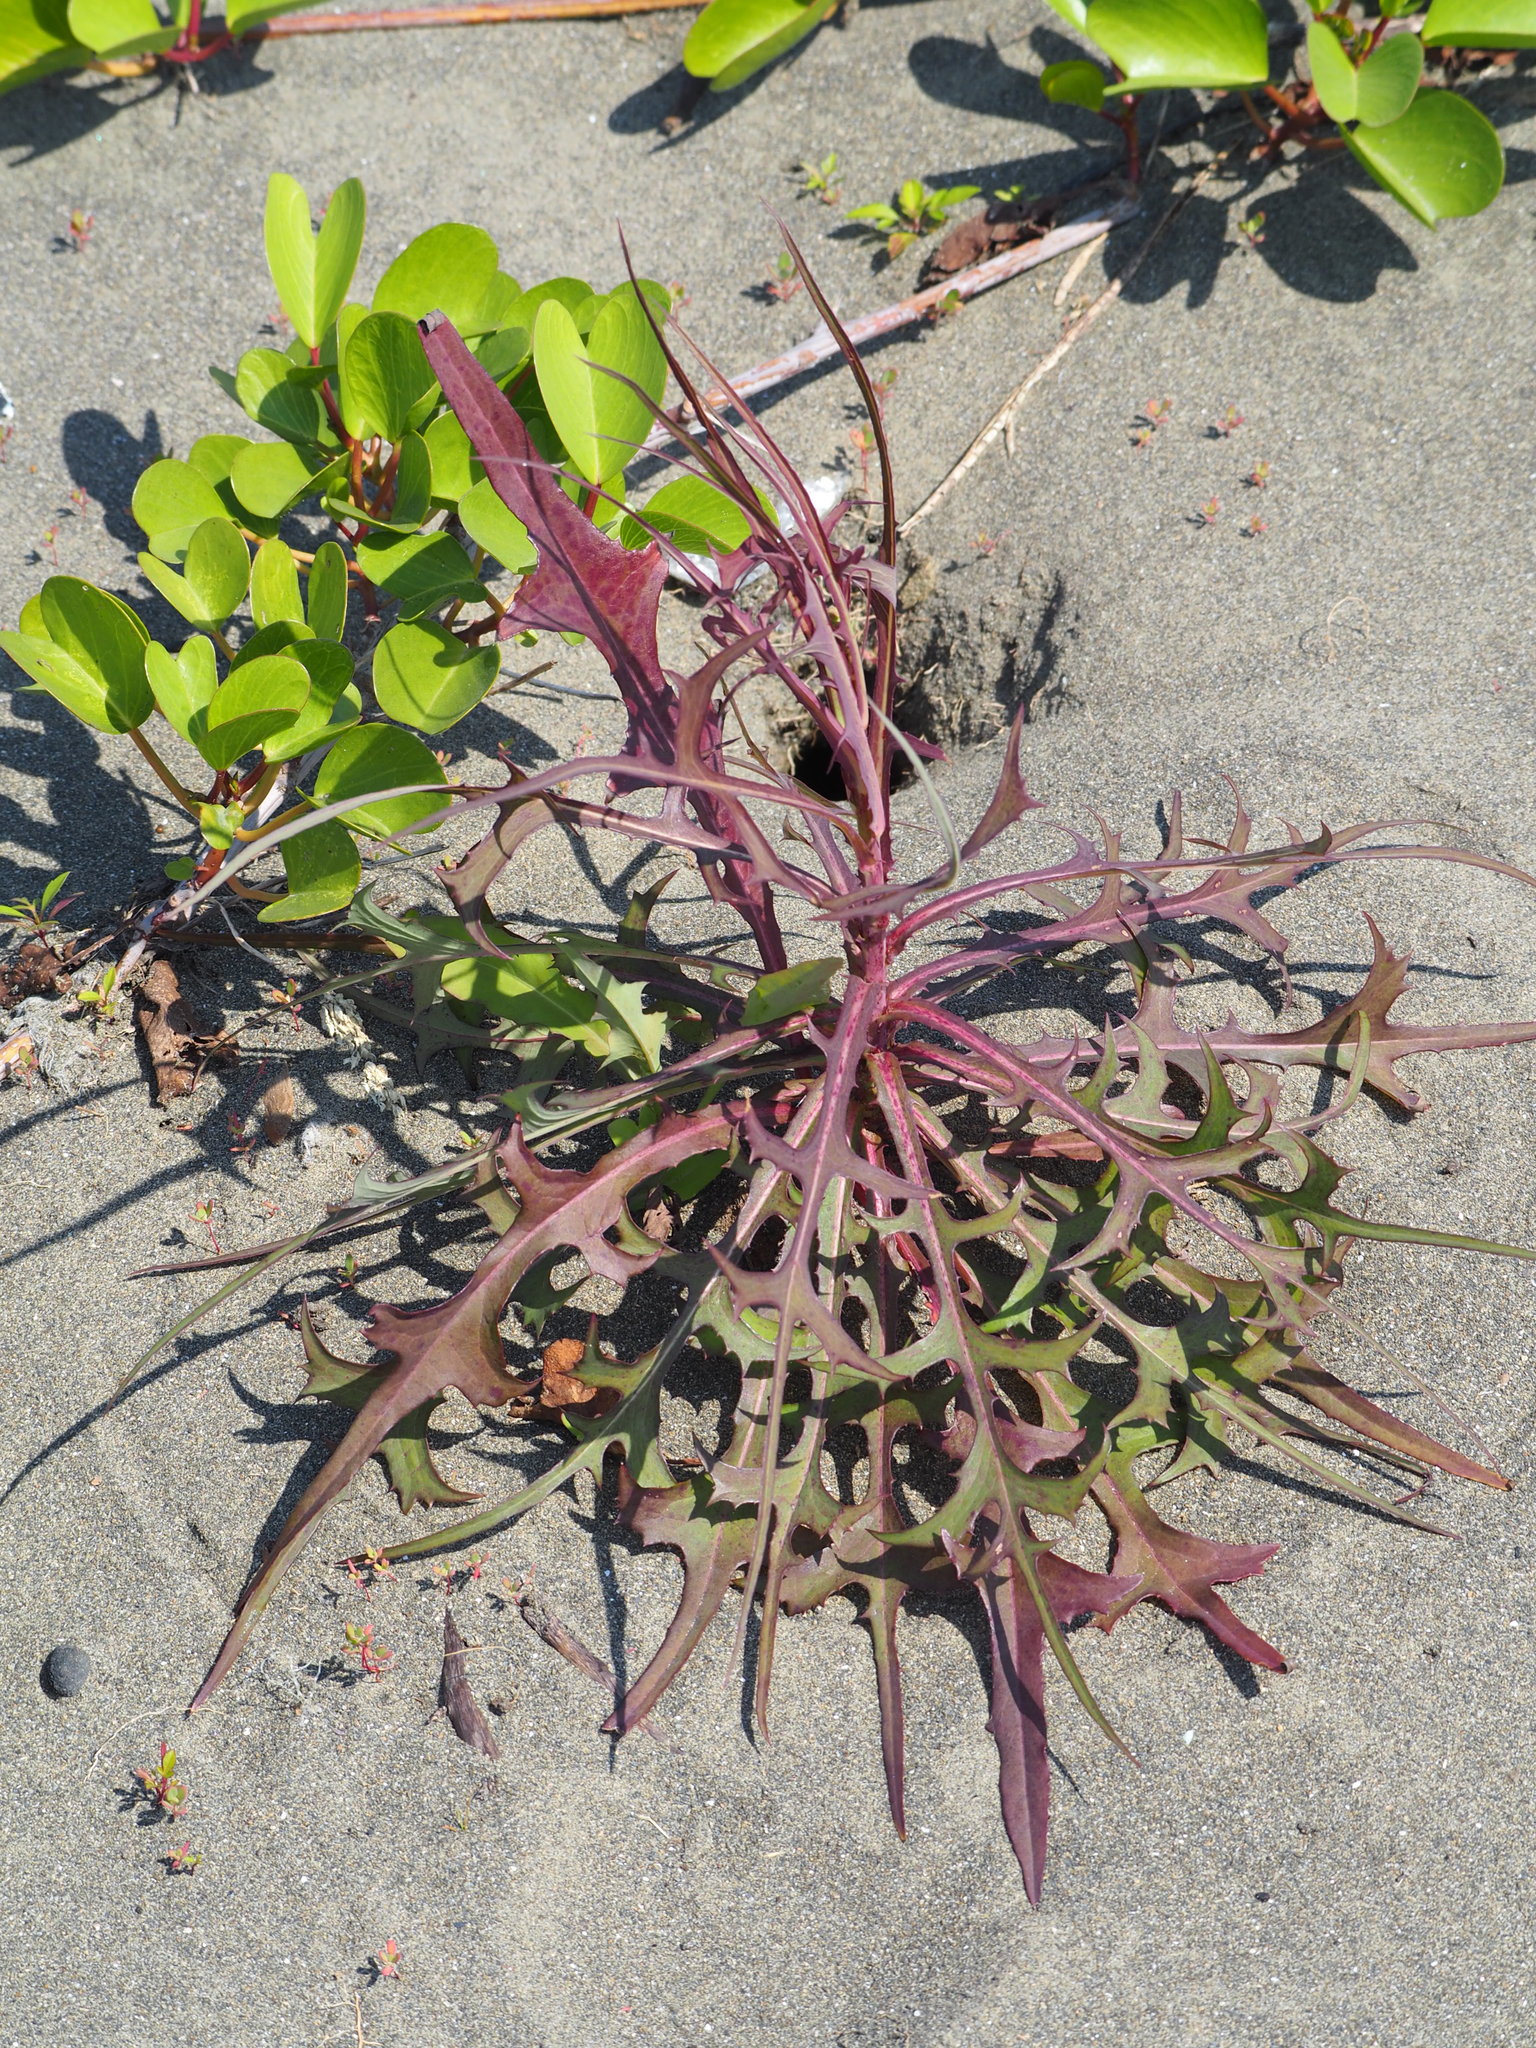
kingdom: Plantae
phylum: Tracheophyta
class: Magnoliopsida
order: Asterales
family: Asteraceae
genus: Lactuca
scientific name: Lactuca indica
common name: Wild lettuce
